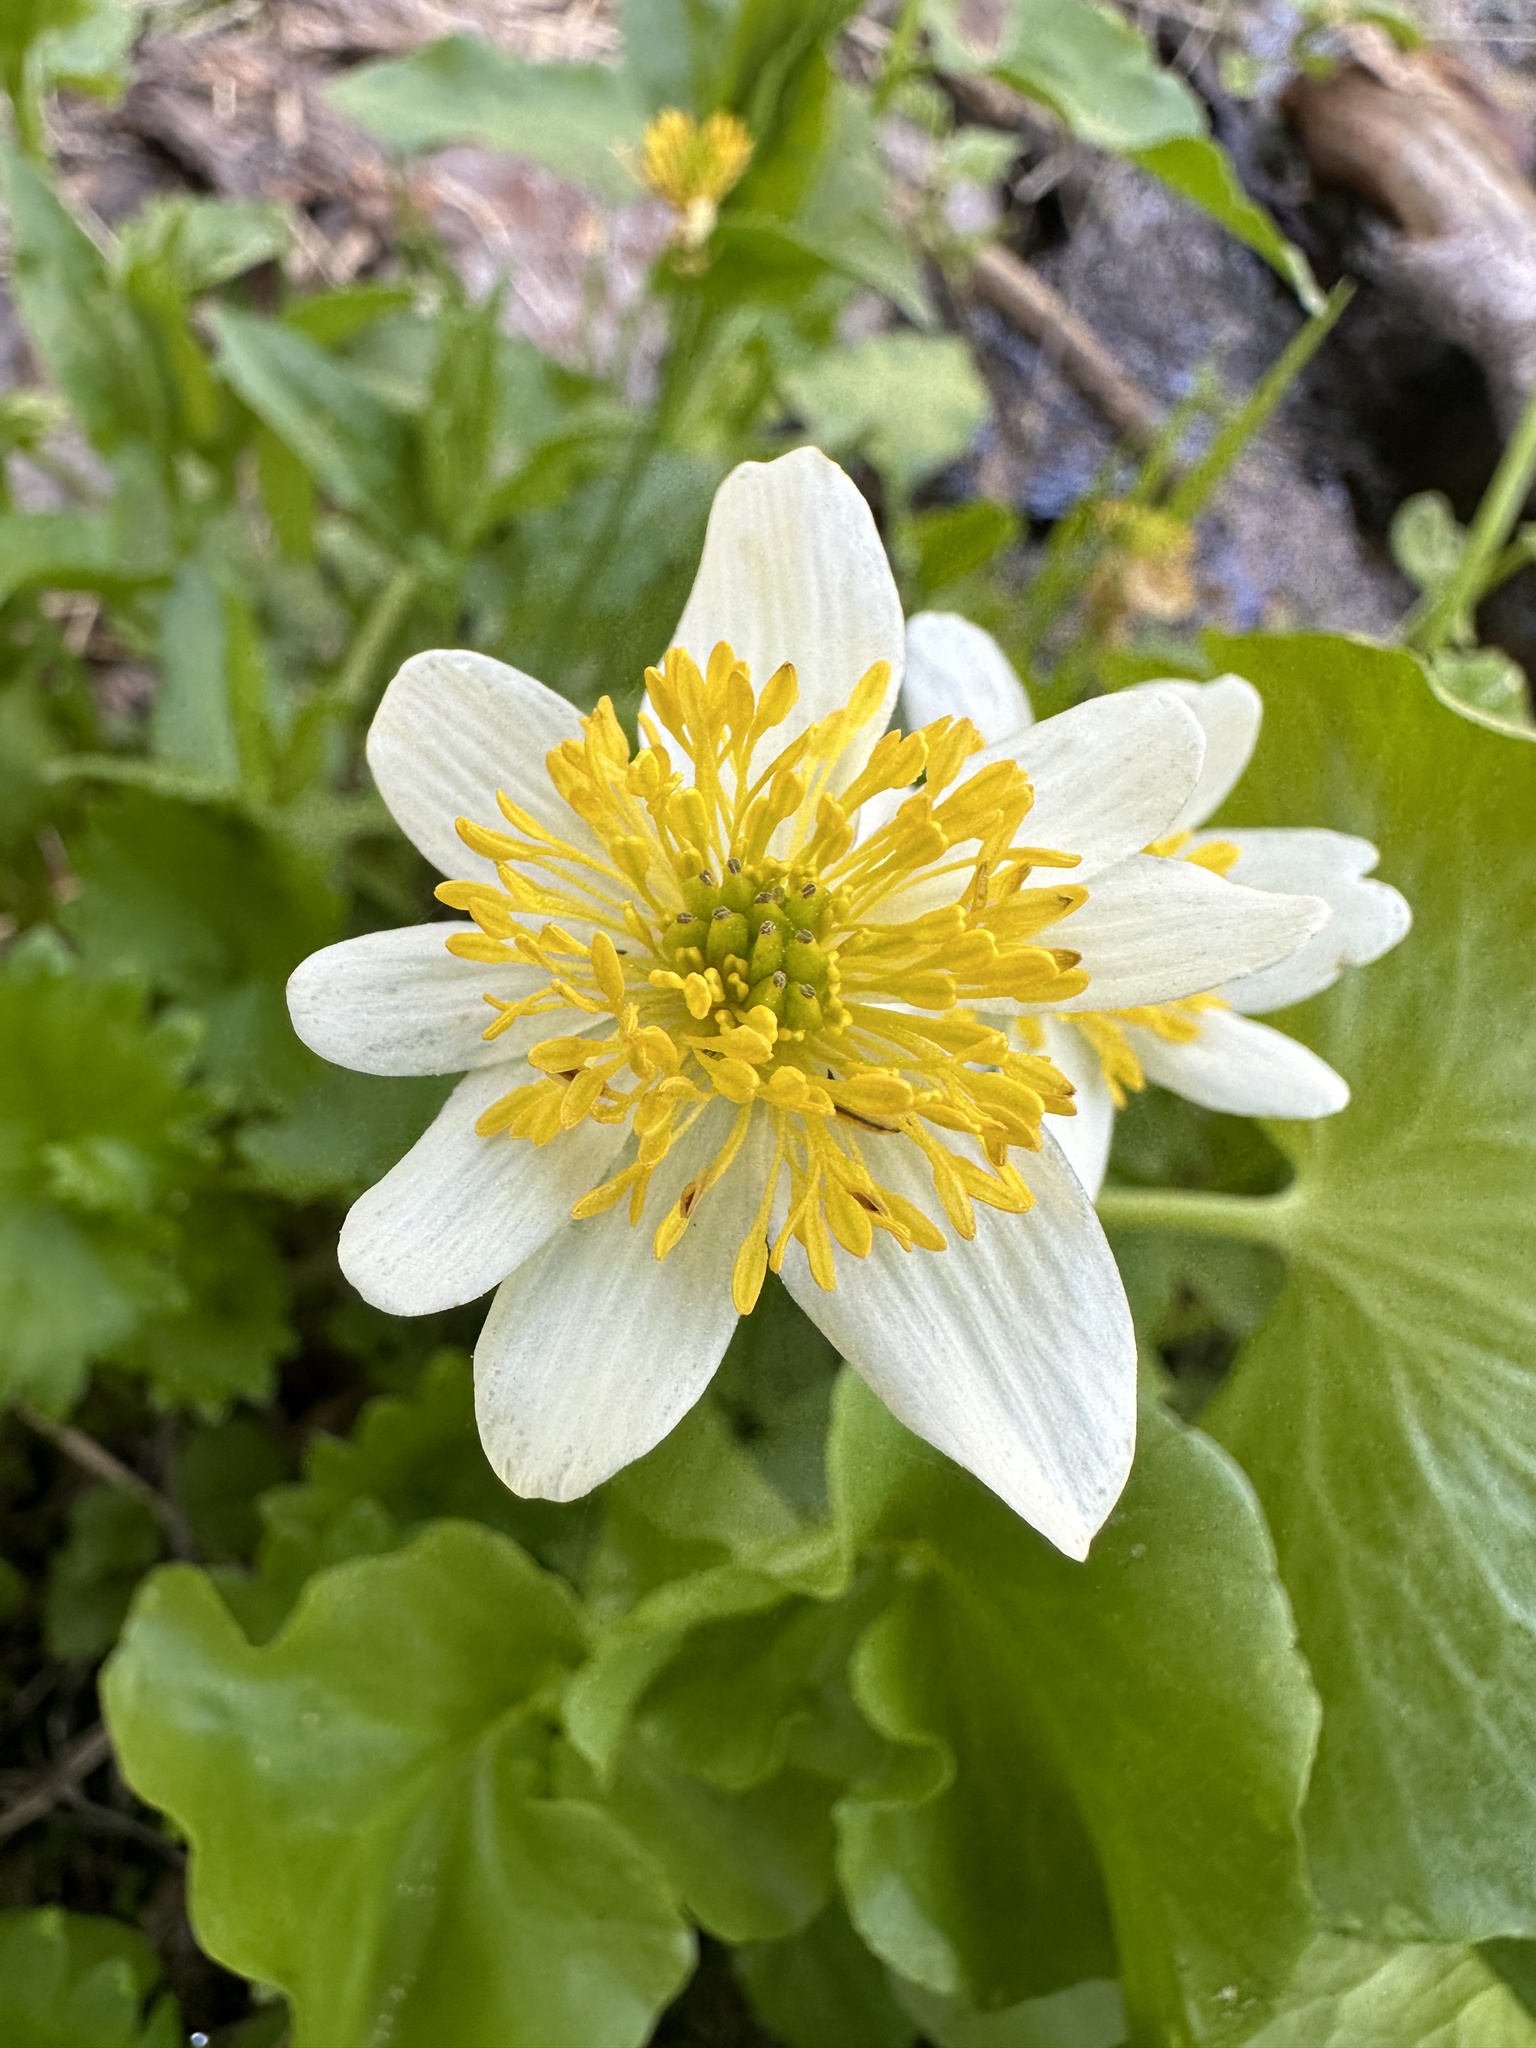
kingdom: Plantae
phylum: Tracheophyta
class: Magnoliopsida
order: Ranunculales
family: Ranunculaceae
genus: Caltha
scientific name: Caltha leptosepala
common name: Elkslip
